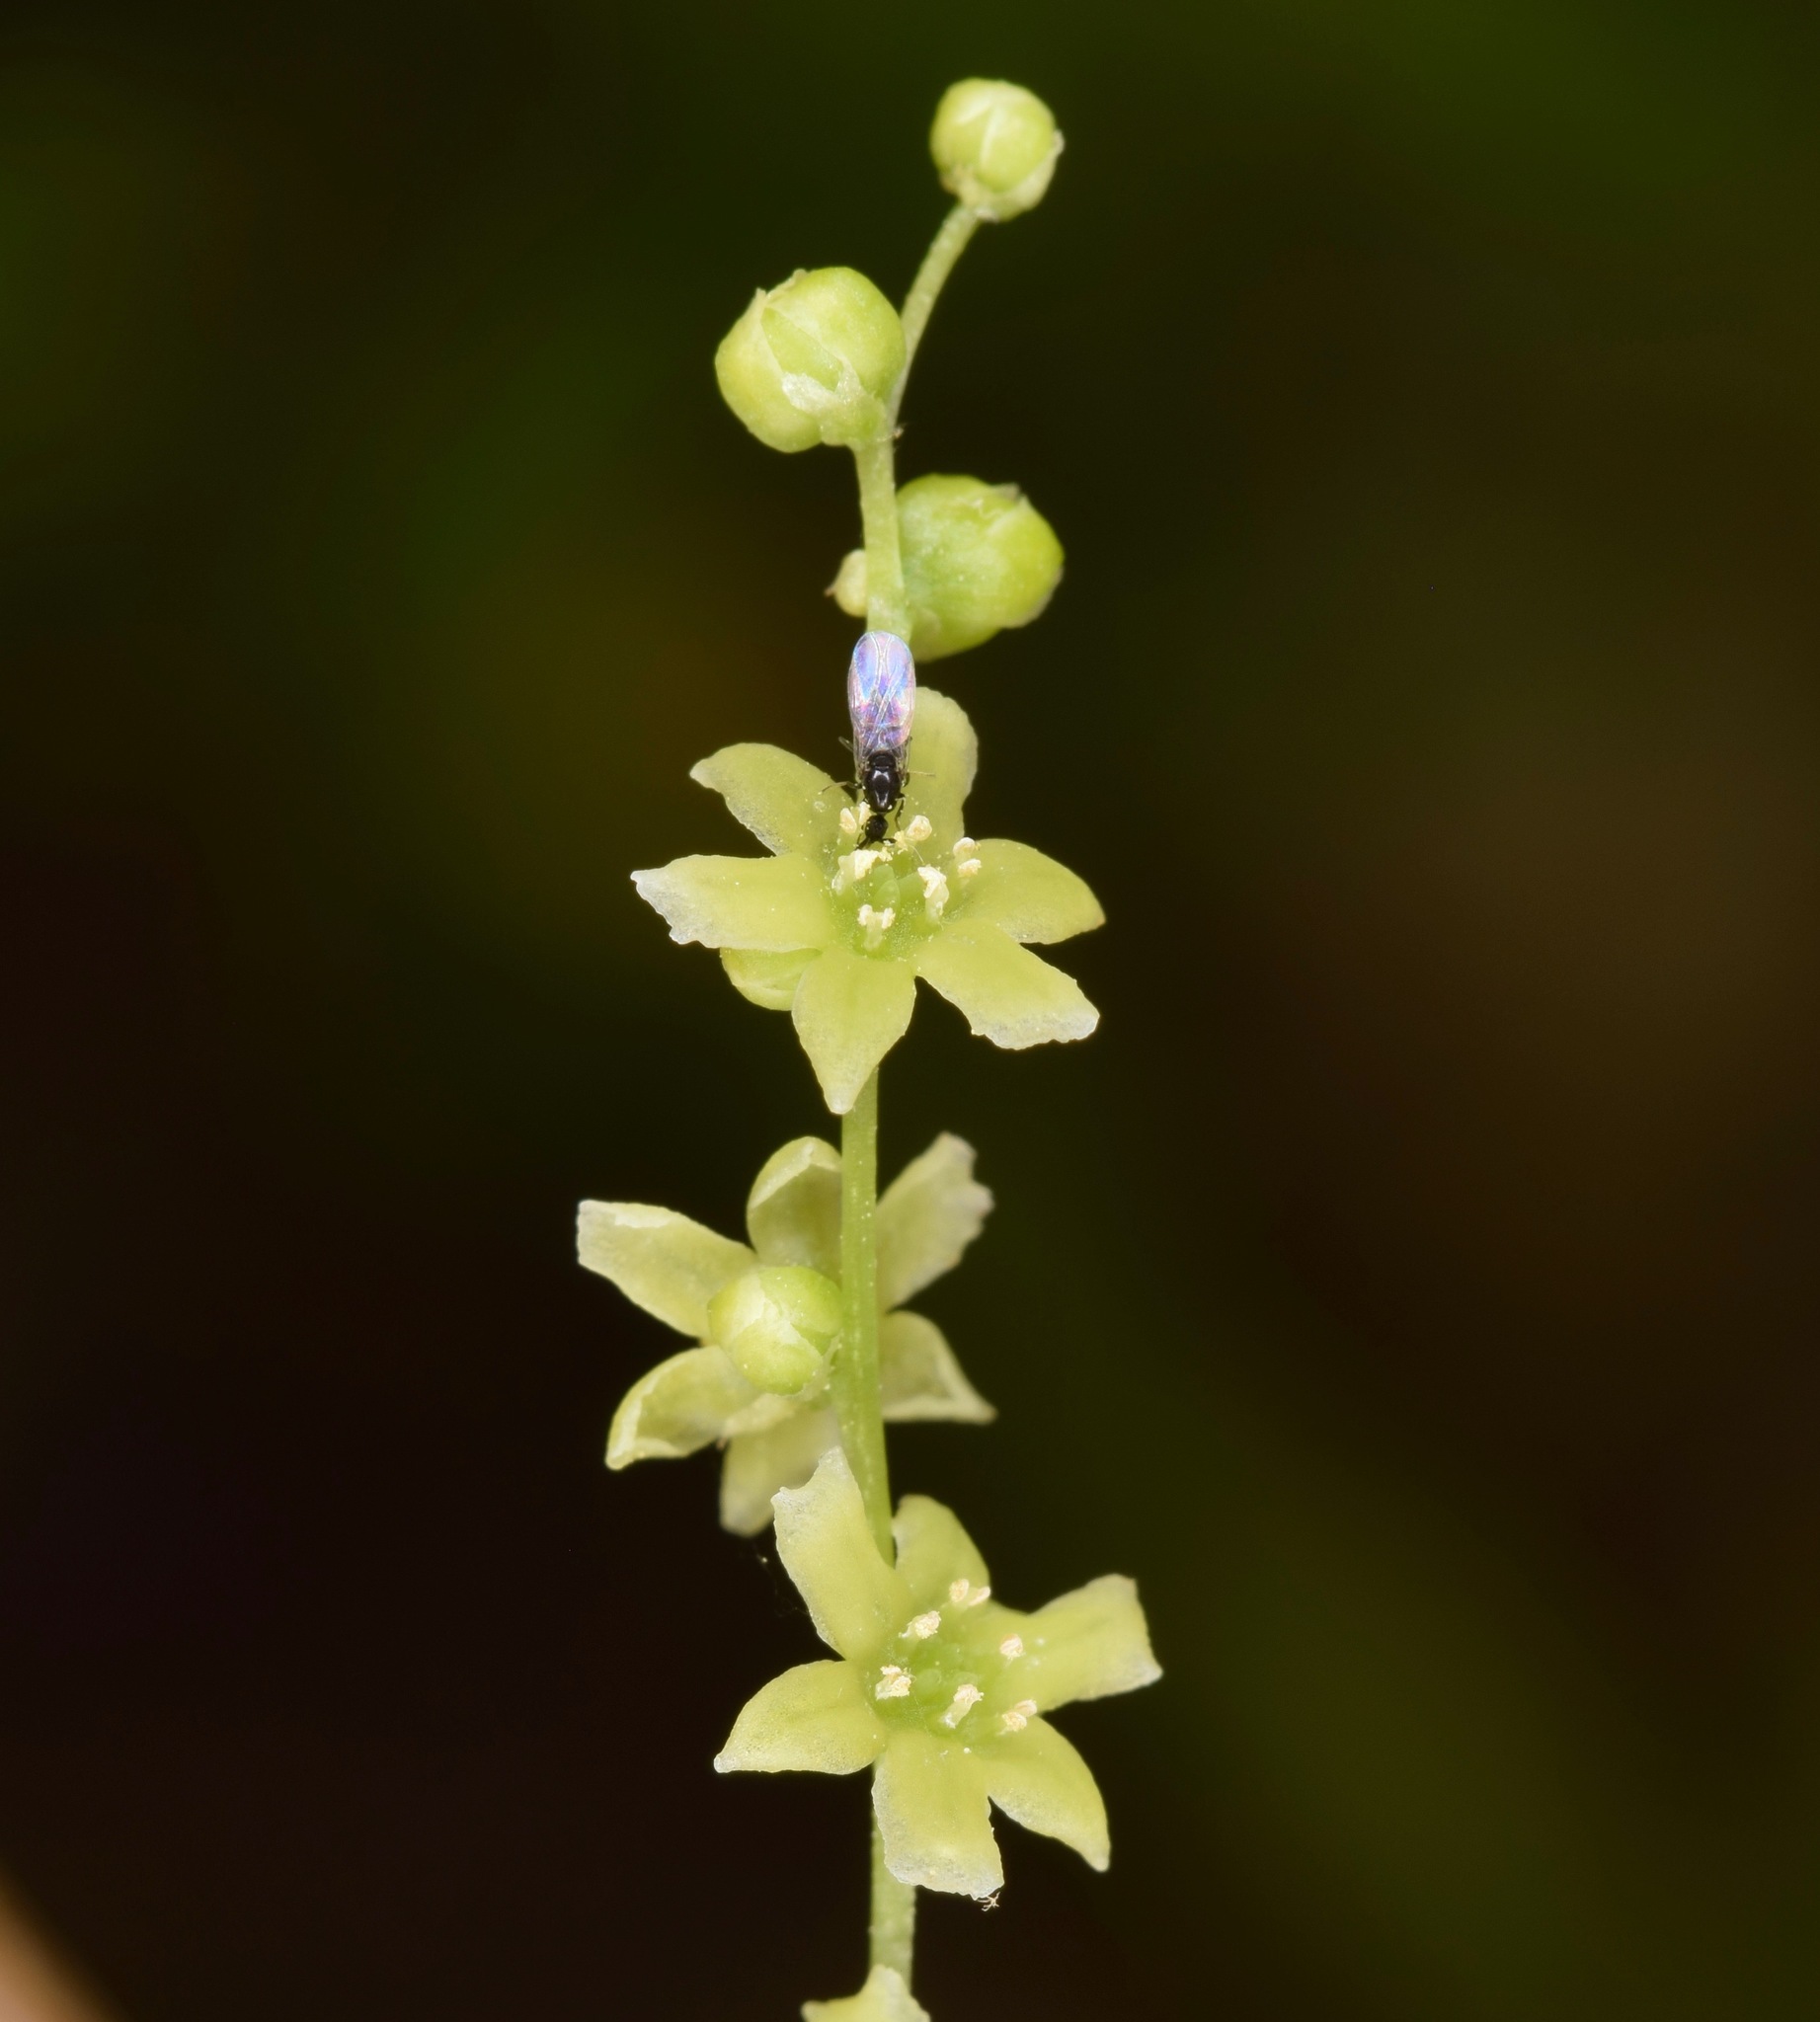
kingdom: Plantae
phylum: Tracheophyta
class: Liliopsida
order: Dioscoreales
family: Dioscoreaceae
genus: Dioscorea
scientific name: Dioscorea villosa
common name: Wild yam
